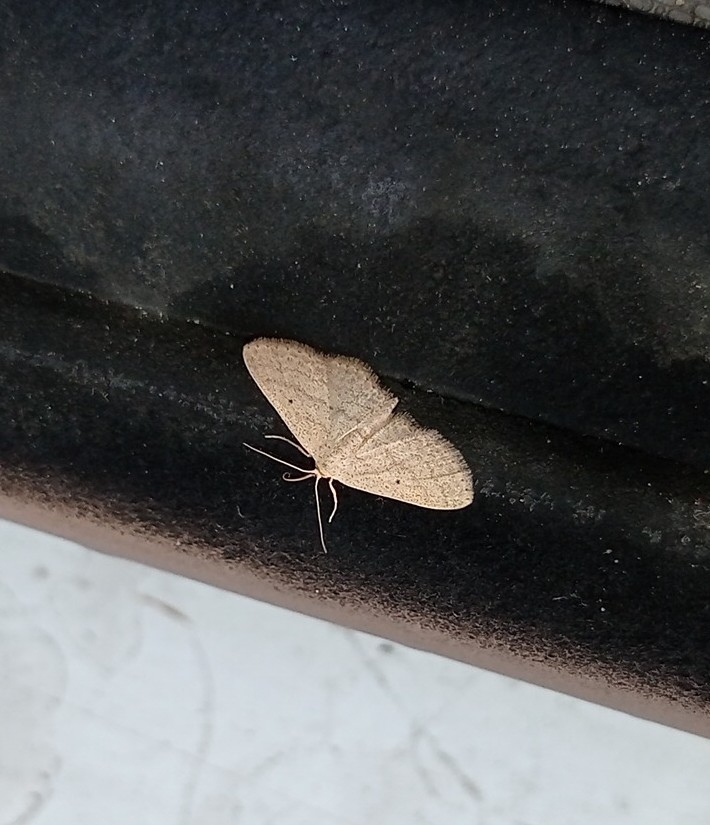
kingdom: Animalia
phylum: Arthropoda
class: Insecta
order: Lepidoptera
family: Geometridae
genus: Scopula
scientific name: Scopula minorata
